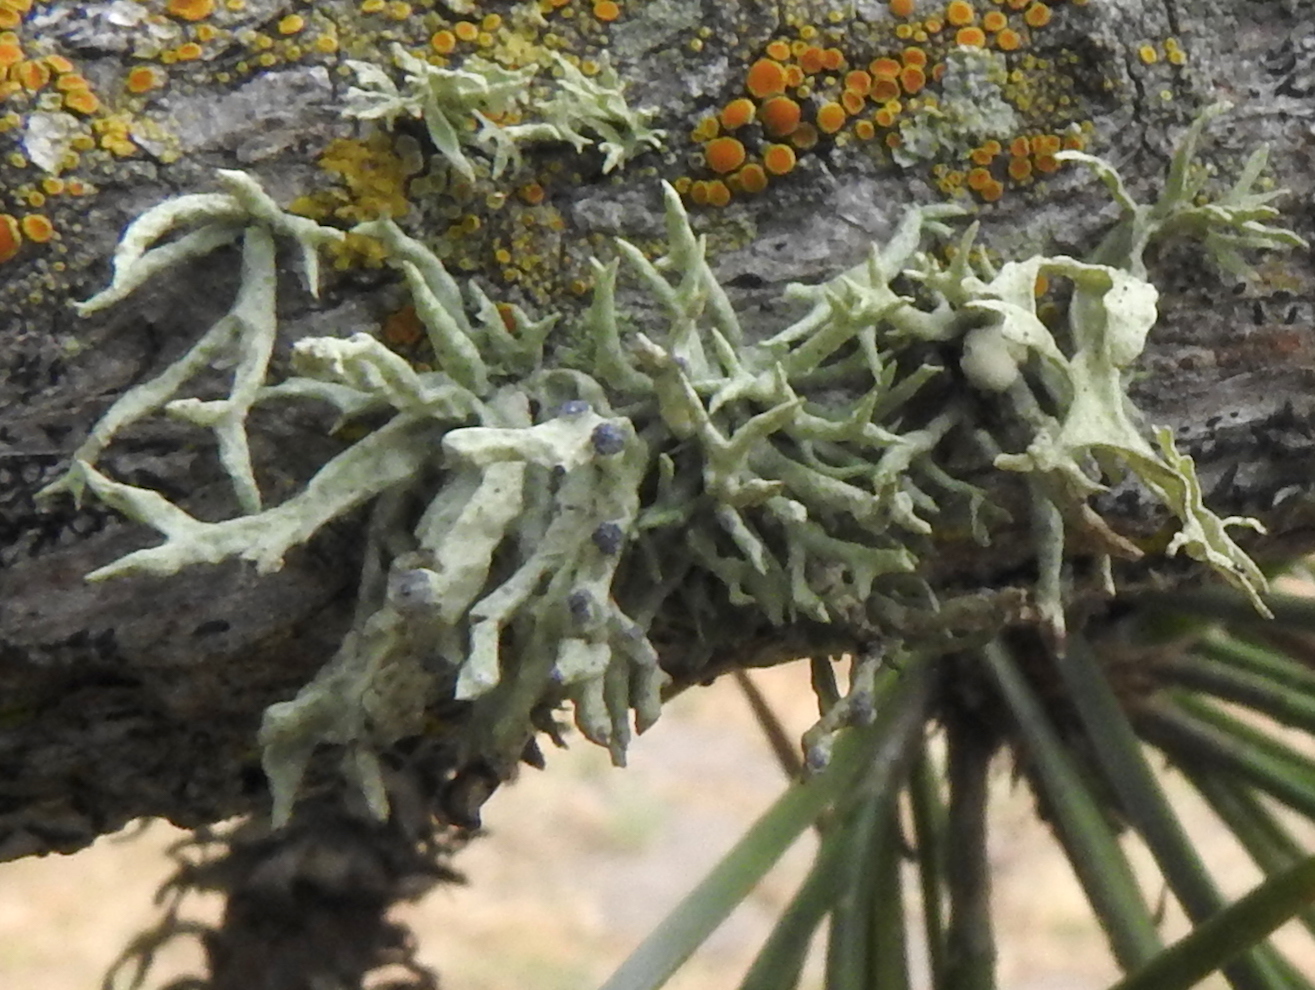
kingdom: Fungi
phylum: Ascomycota
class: Lecanoromycetes
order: Lecanorales
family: Ramalinaceae
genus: Niebla
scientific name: Niebla cephalota
